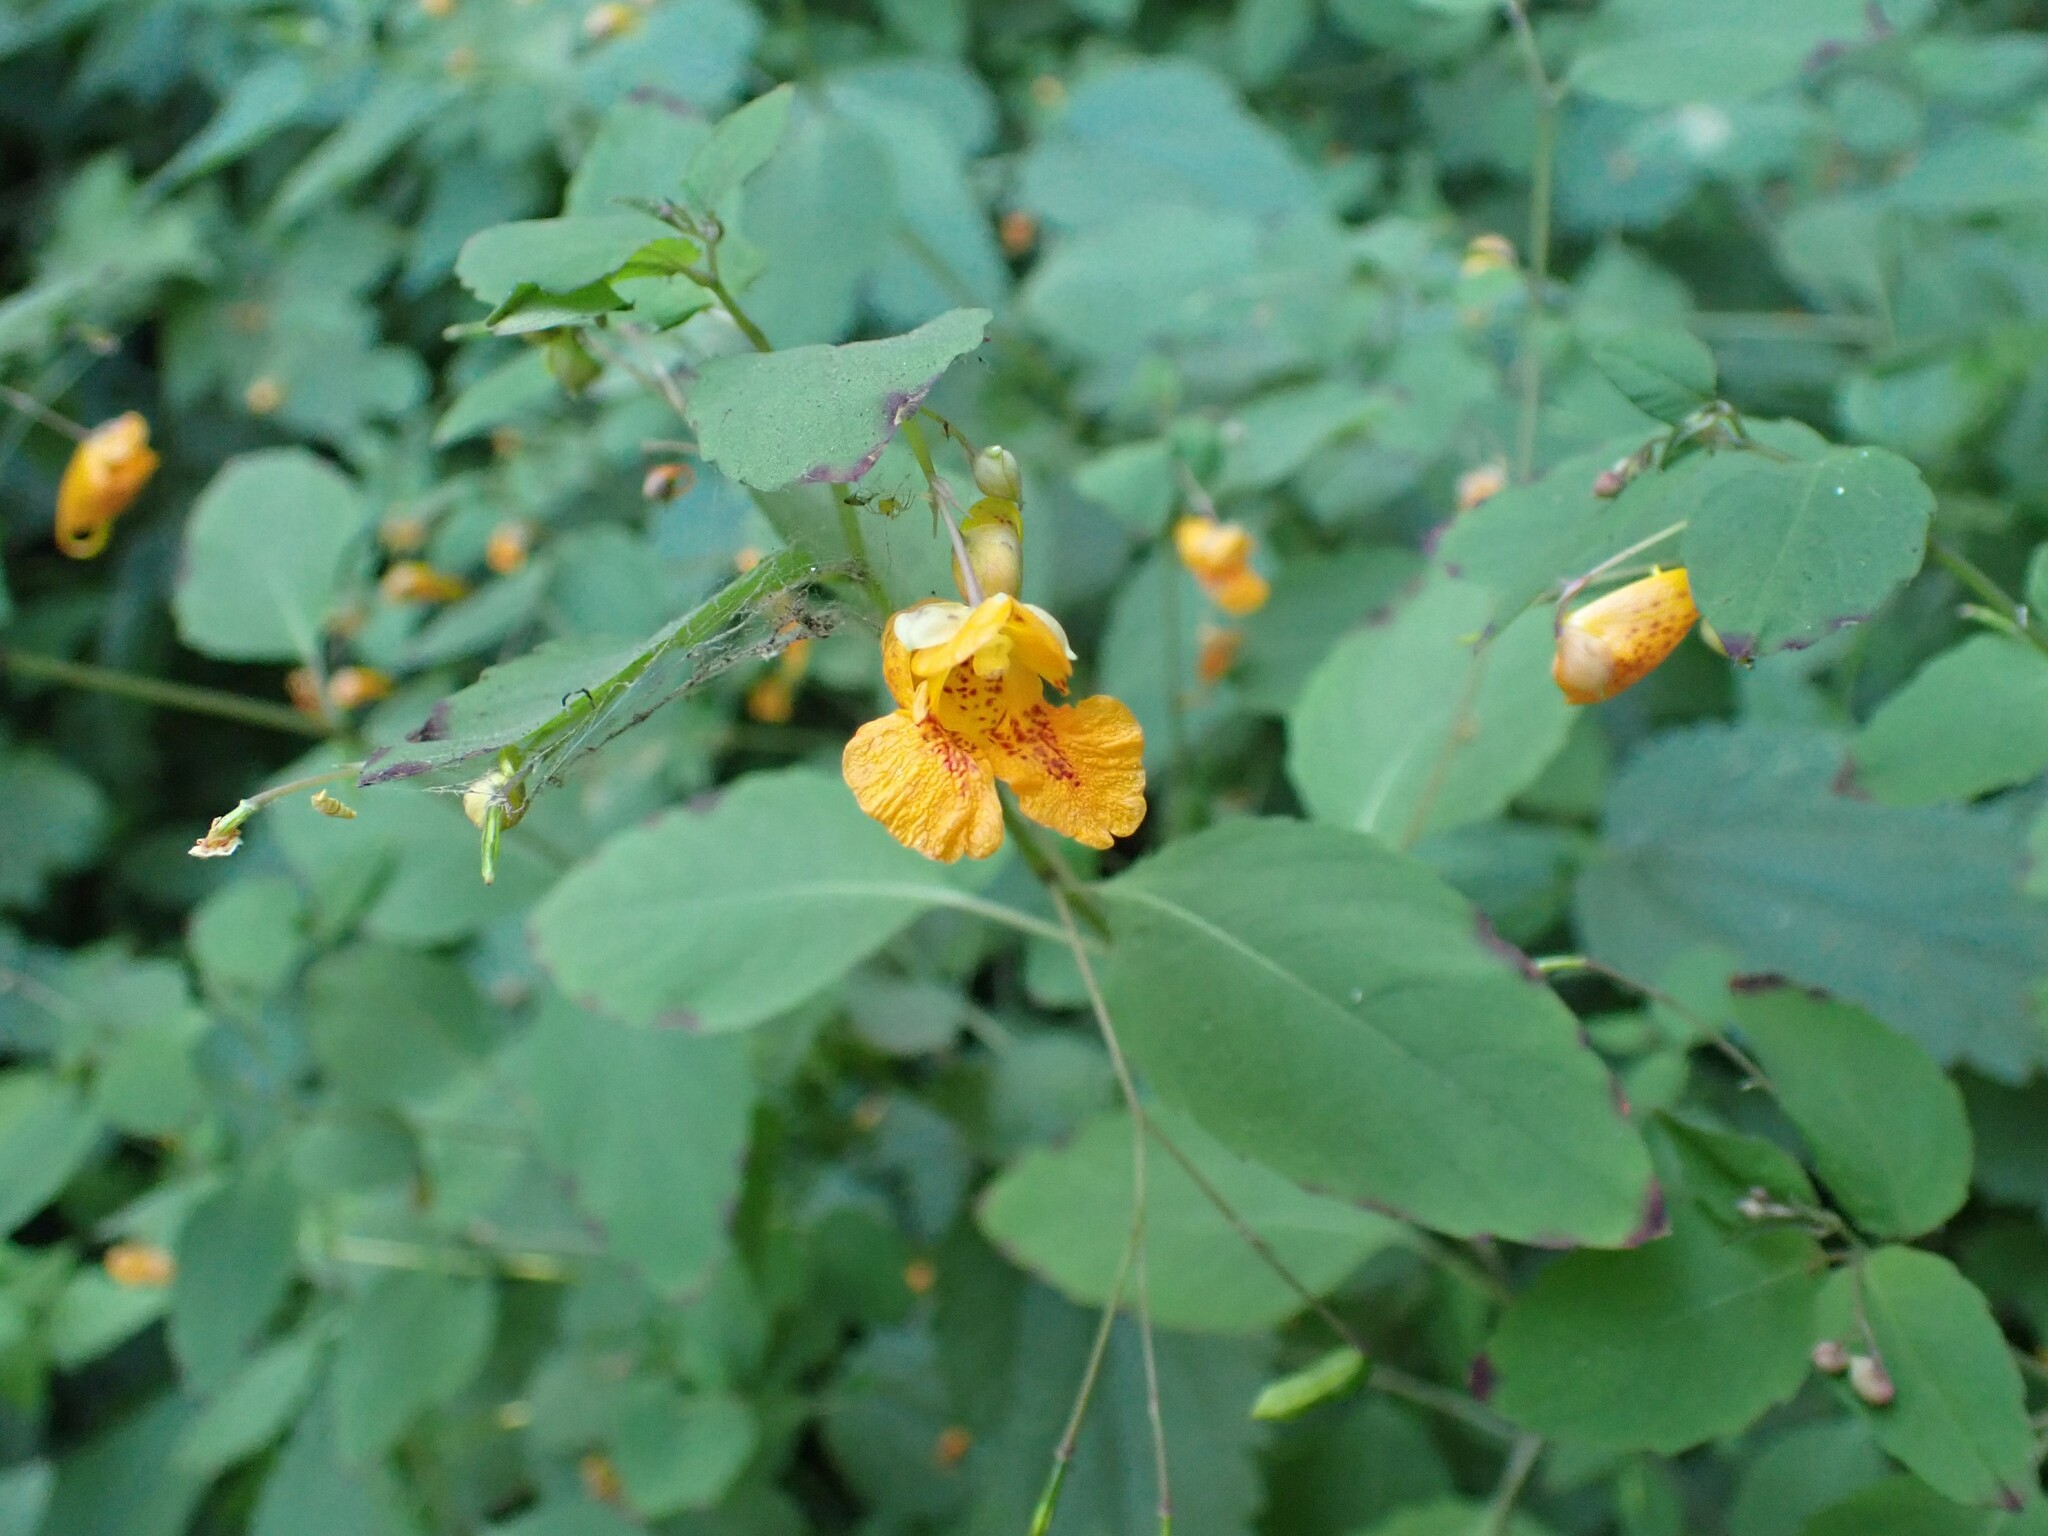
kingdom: Plantae
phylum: Tracheophyta
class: Magnoliopsida
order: Ericales
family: Balsaminaceae
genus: Impatiens
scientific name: Impatiens capensis
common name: Orange balsam
